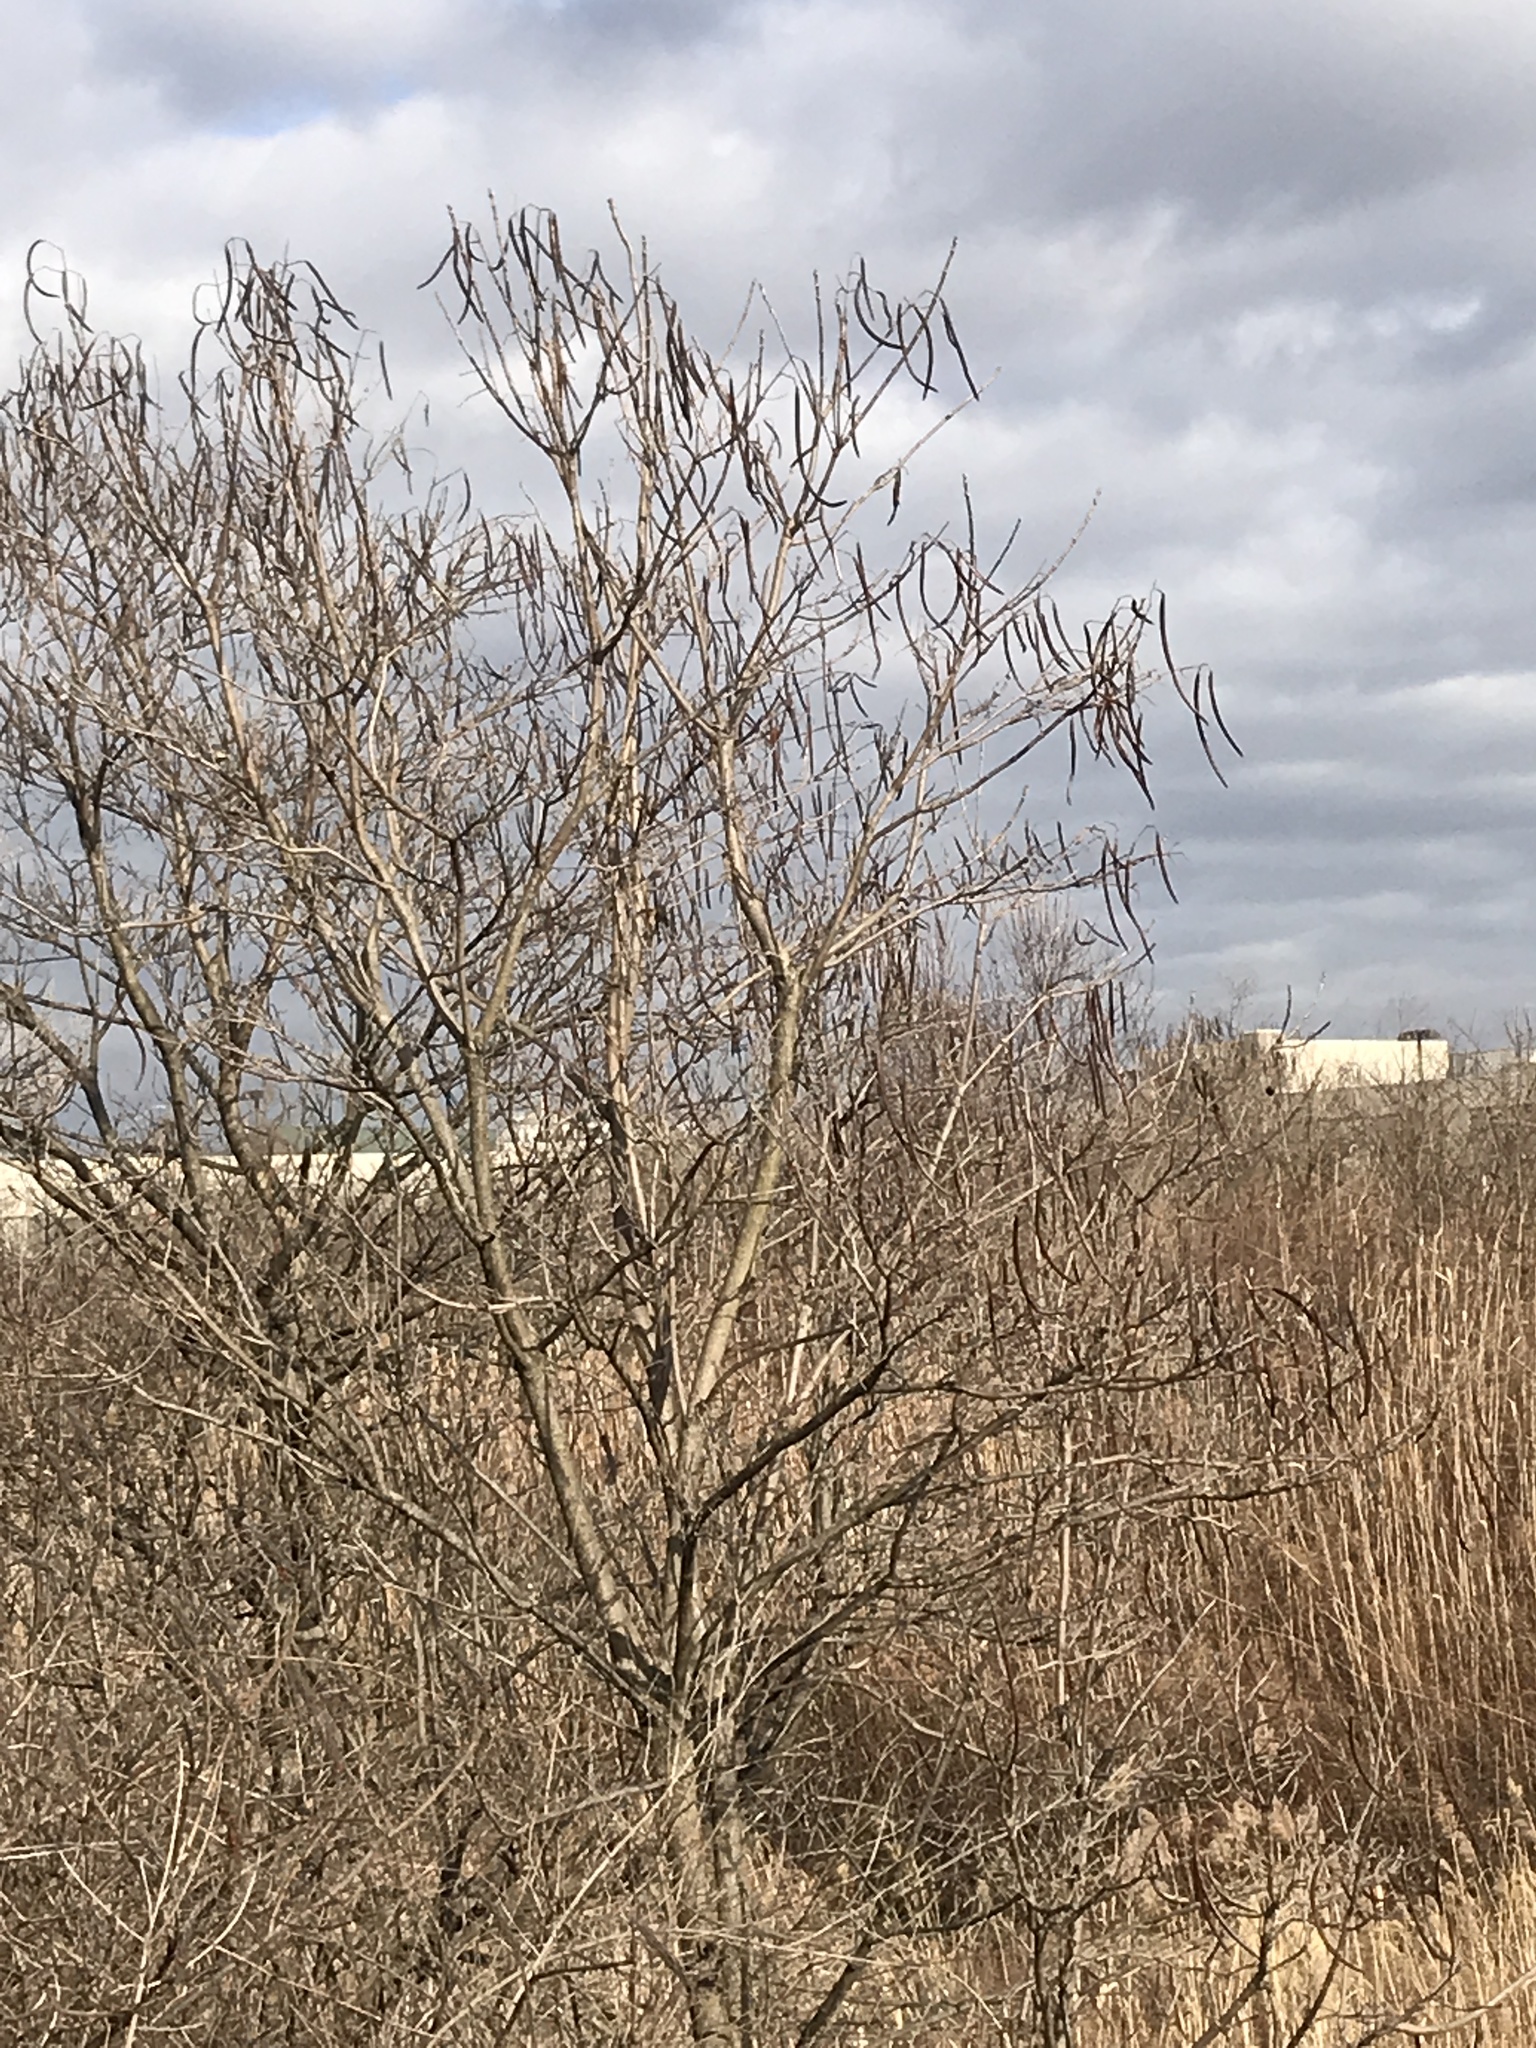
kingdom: Plantae
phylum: Tracheophyta
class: Magnoliopsida
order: Lamiales
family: Bignoniaceae
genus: Catalpa
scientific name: Catalpa
